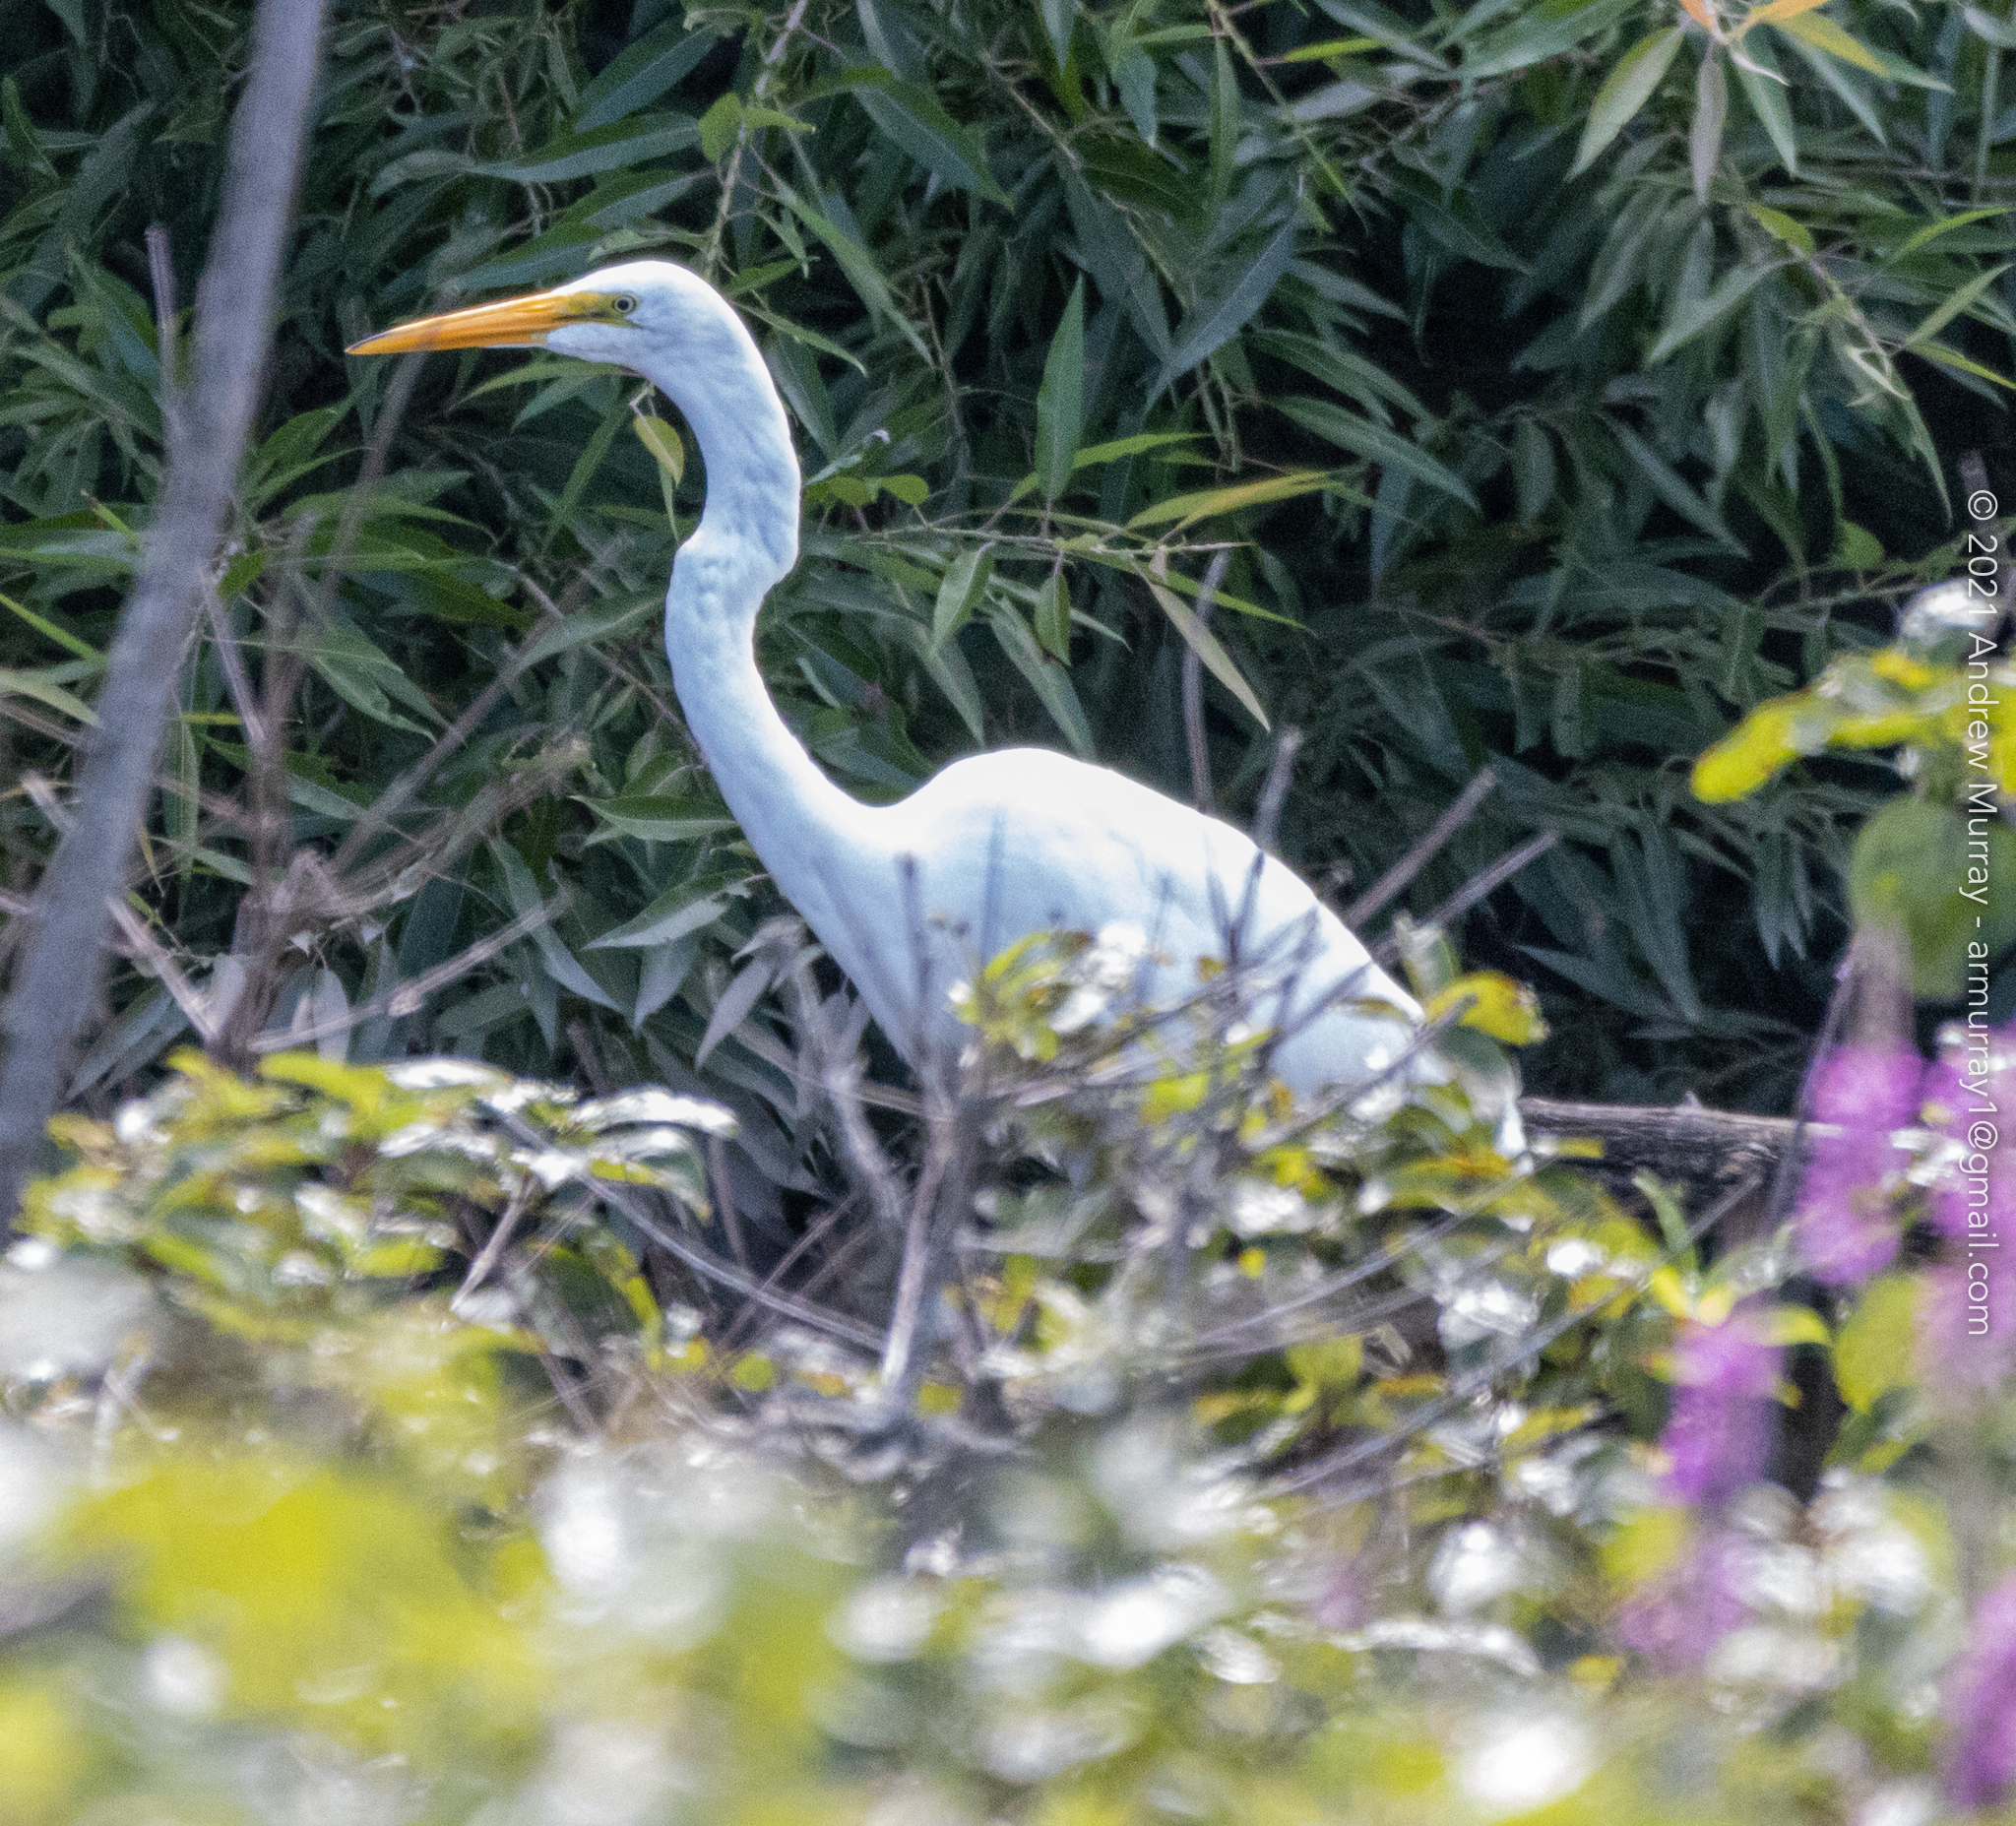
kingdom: Animalia
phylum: Chordata
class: Aves
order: Pelecaniformes
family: Ardeidae
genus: Ardea
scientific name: Ardea alba
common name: Great egret
